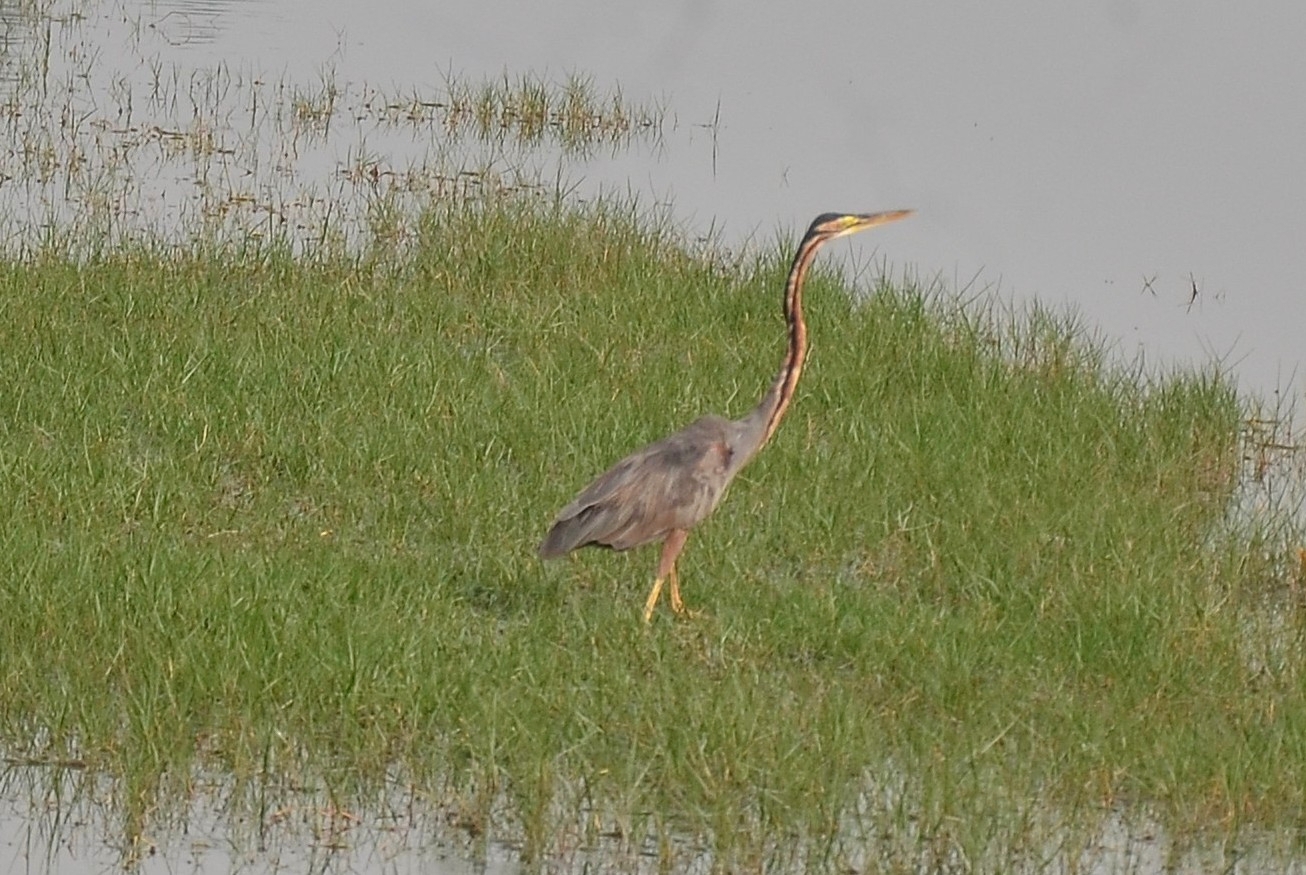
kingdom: Animalia
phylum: Chordata
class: Aves
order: Pelecaniformes
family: Ardeidae
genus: Ardea
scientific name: Ardea purpurea
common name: Purple heron
